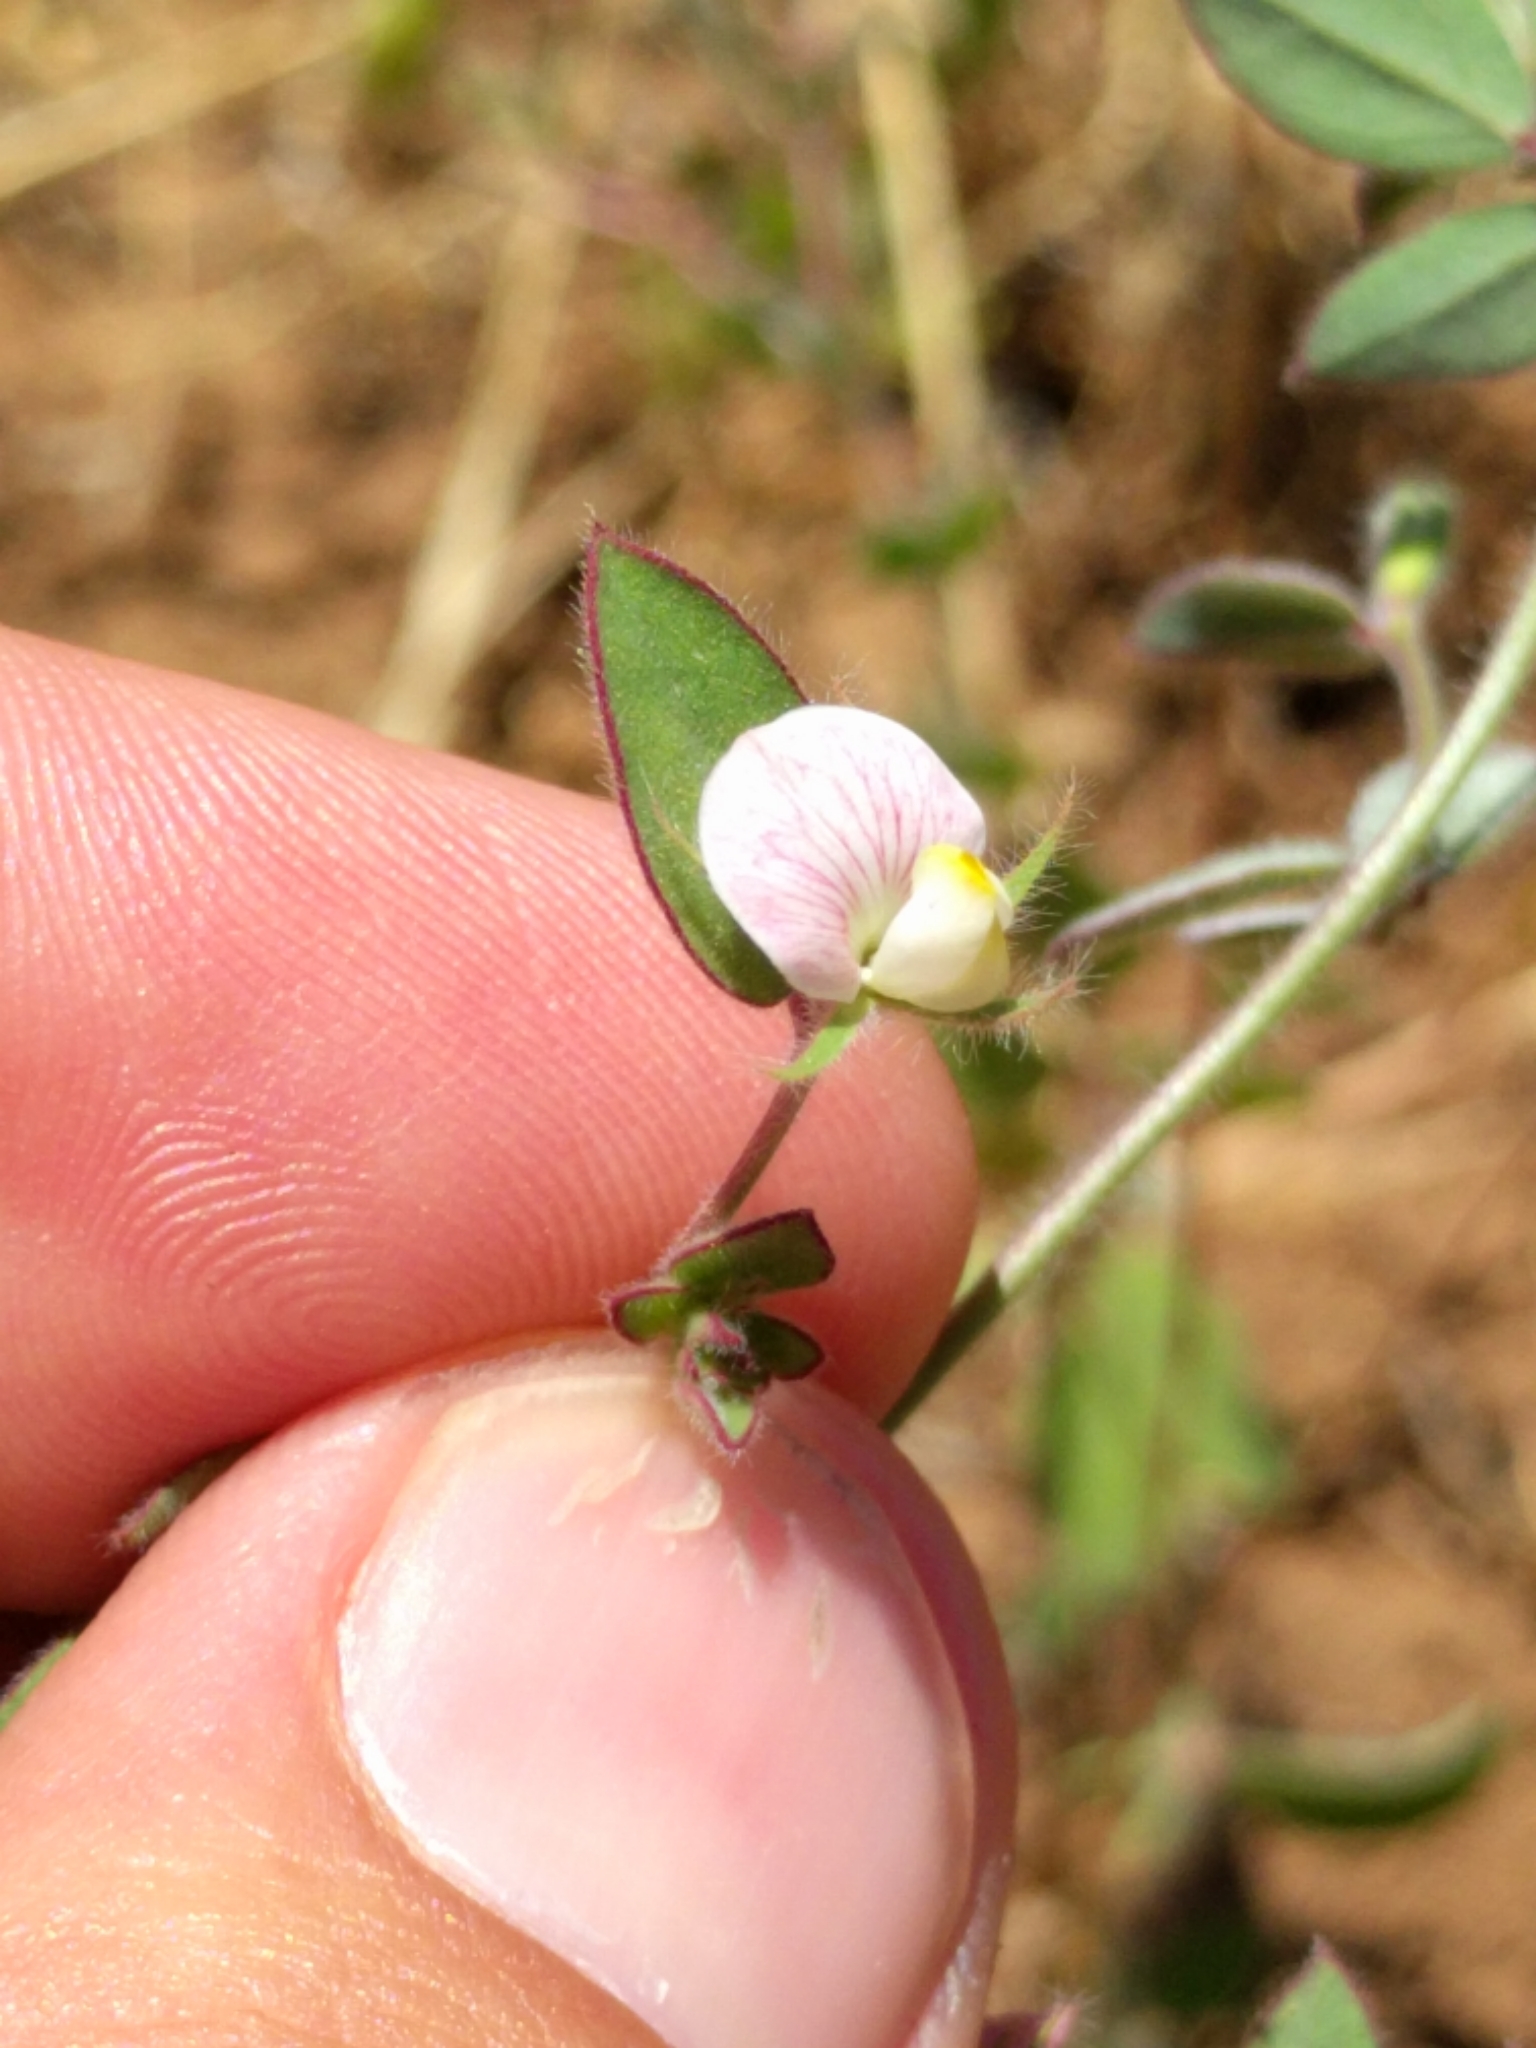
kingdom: Plantae
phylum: Tracheophyta
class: Magnoliopsida
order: Fabales
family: Fabaceae
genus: Acmispon
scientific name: Acmispon americanus
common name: American bird's-foot trefoil
